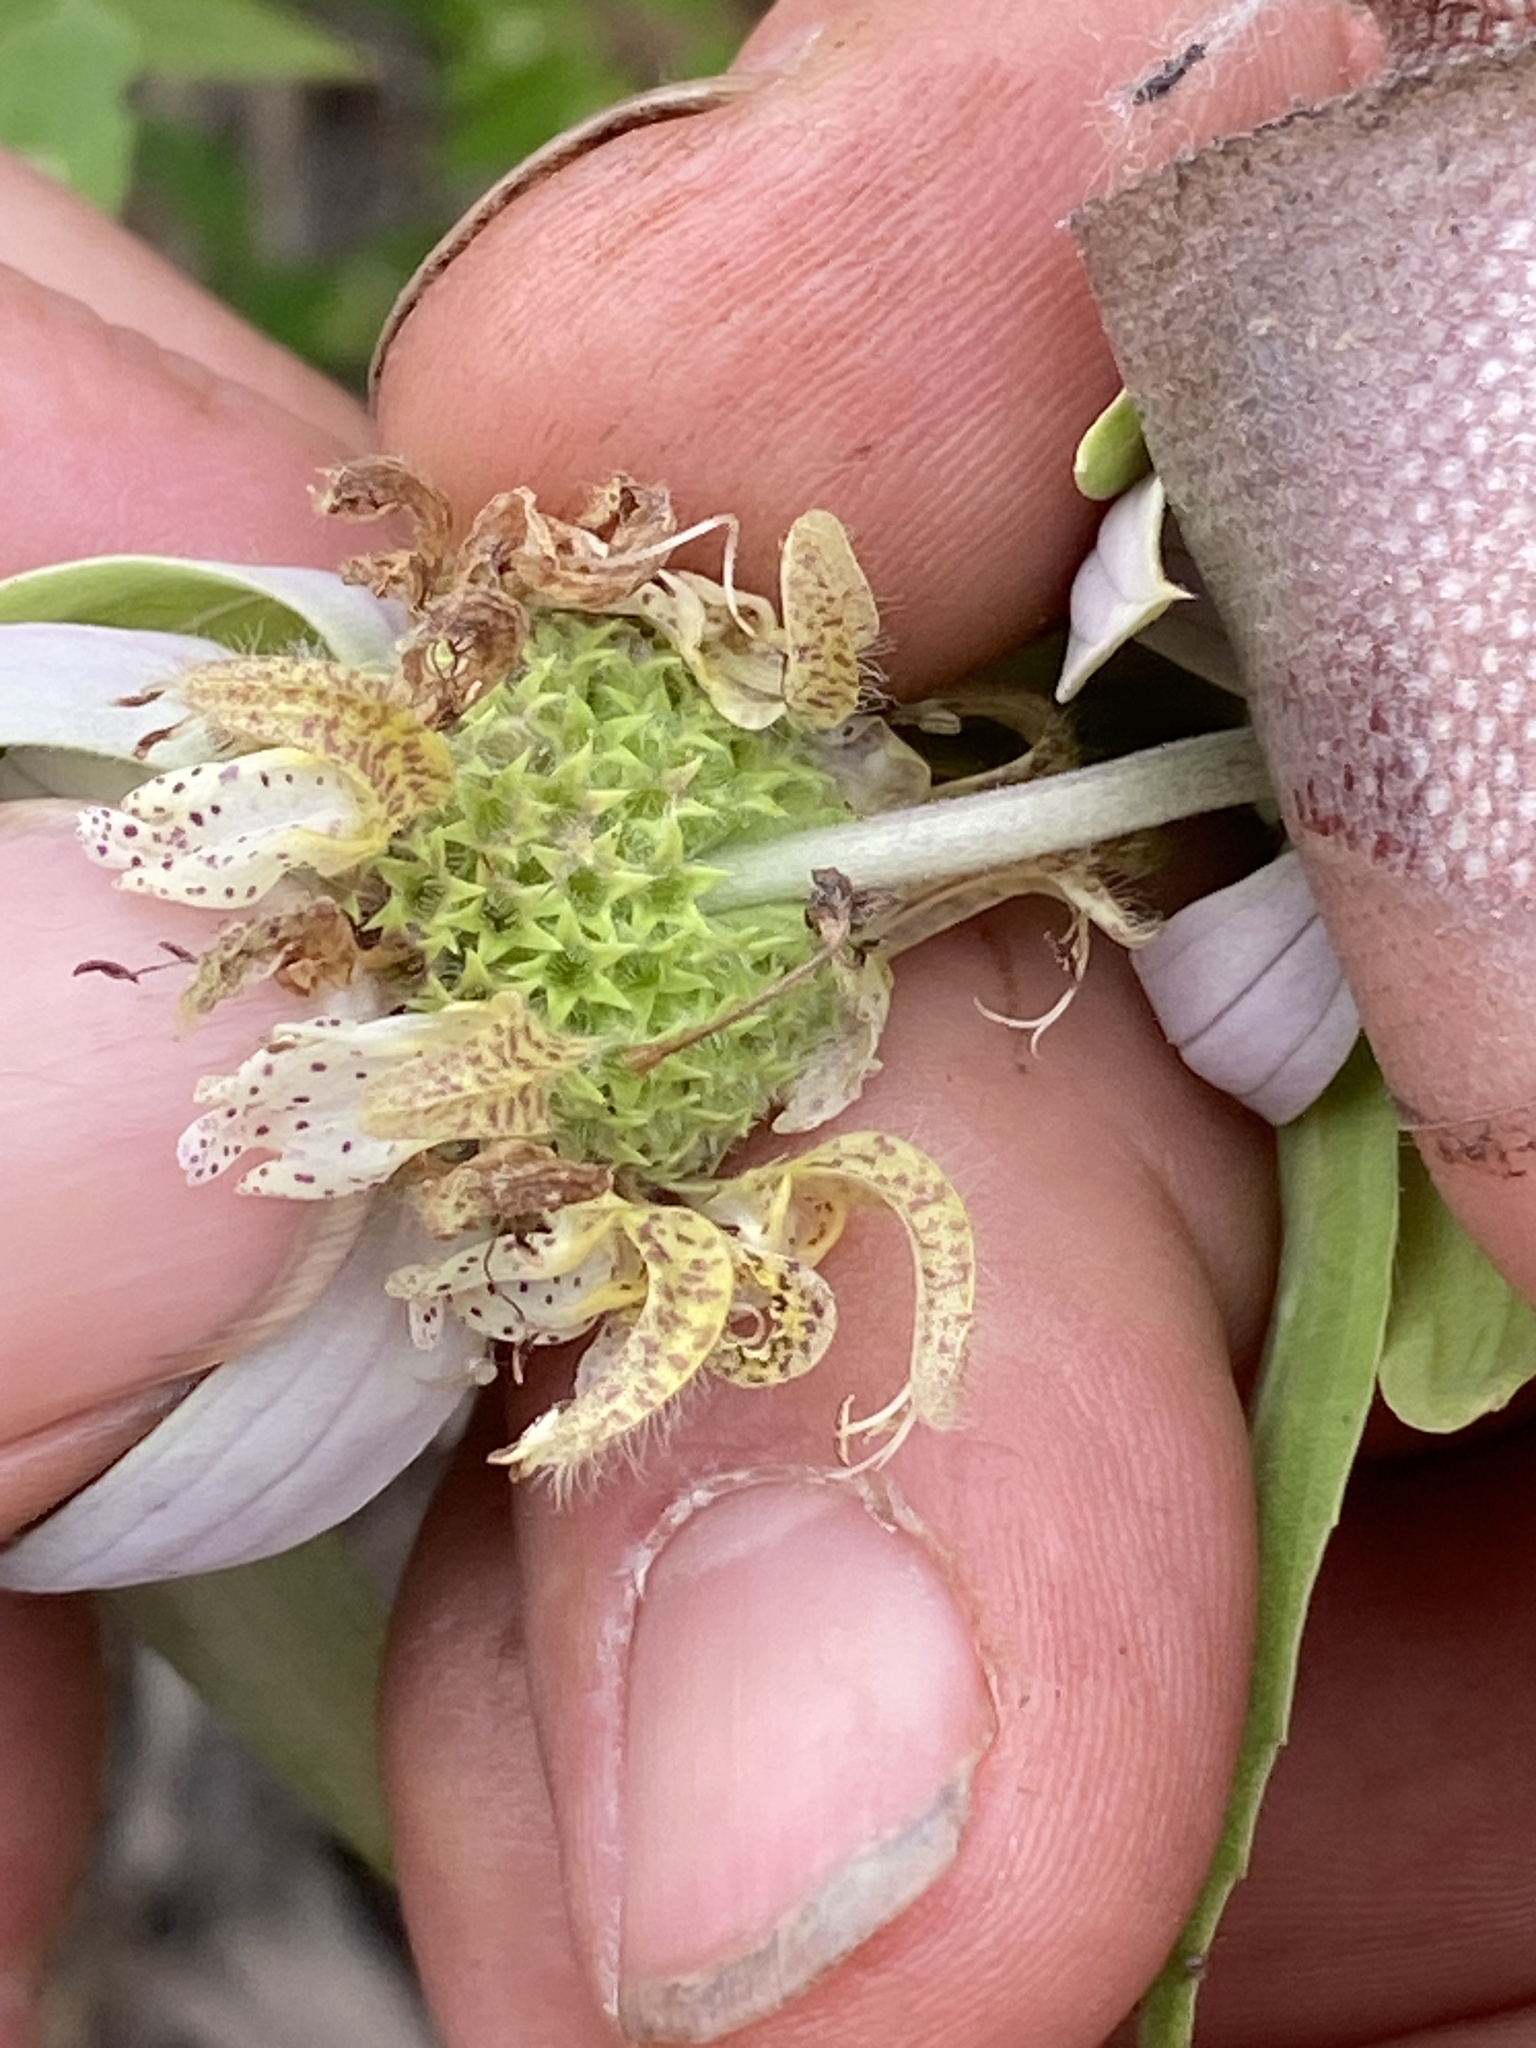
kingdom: Plantae
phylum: Tracheophyta
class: Magnoliopsida
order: Lamiales
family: Lamiaceae
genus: Monarda
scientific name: Monarda punctata
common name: Dotted monarda
